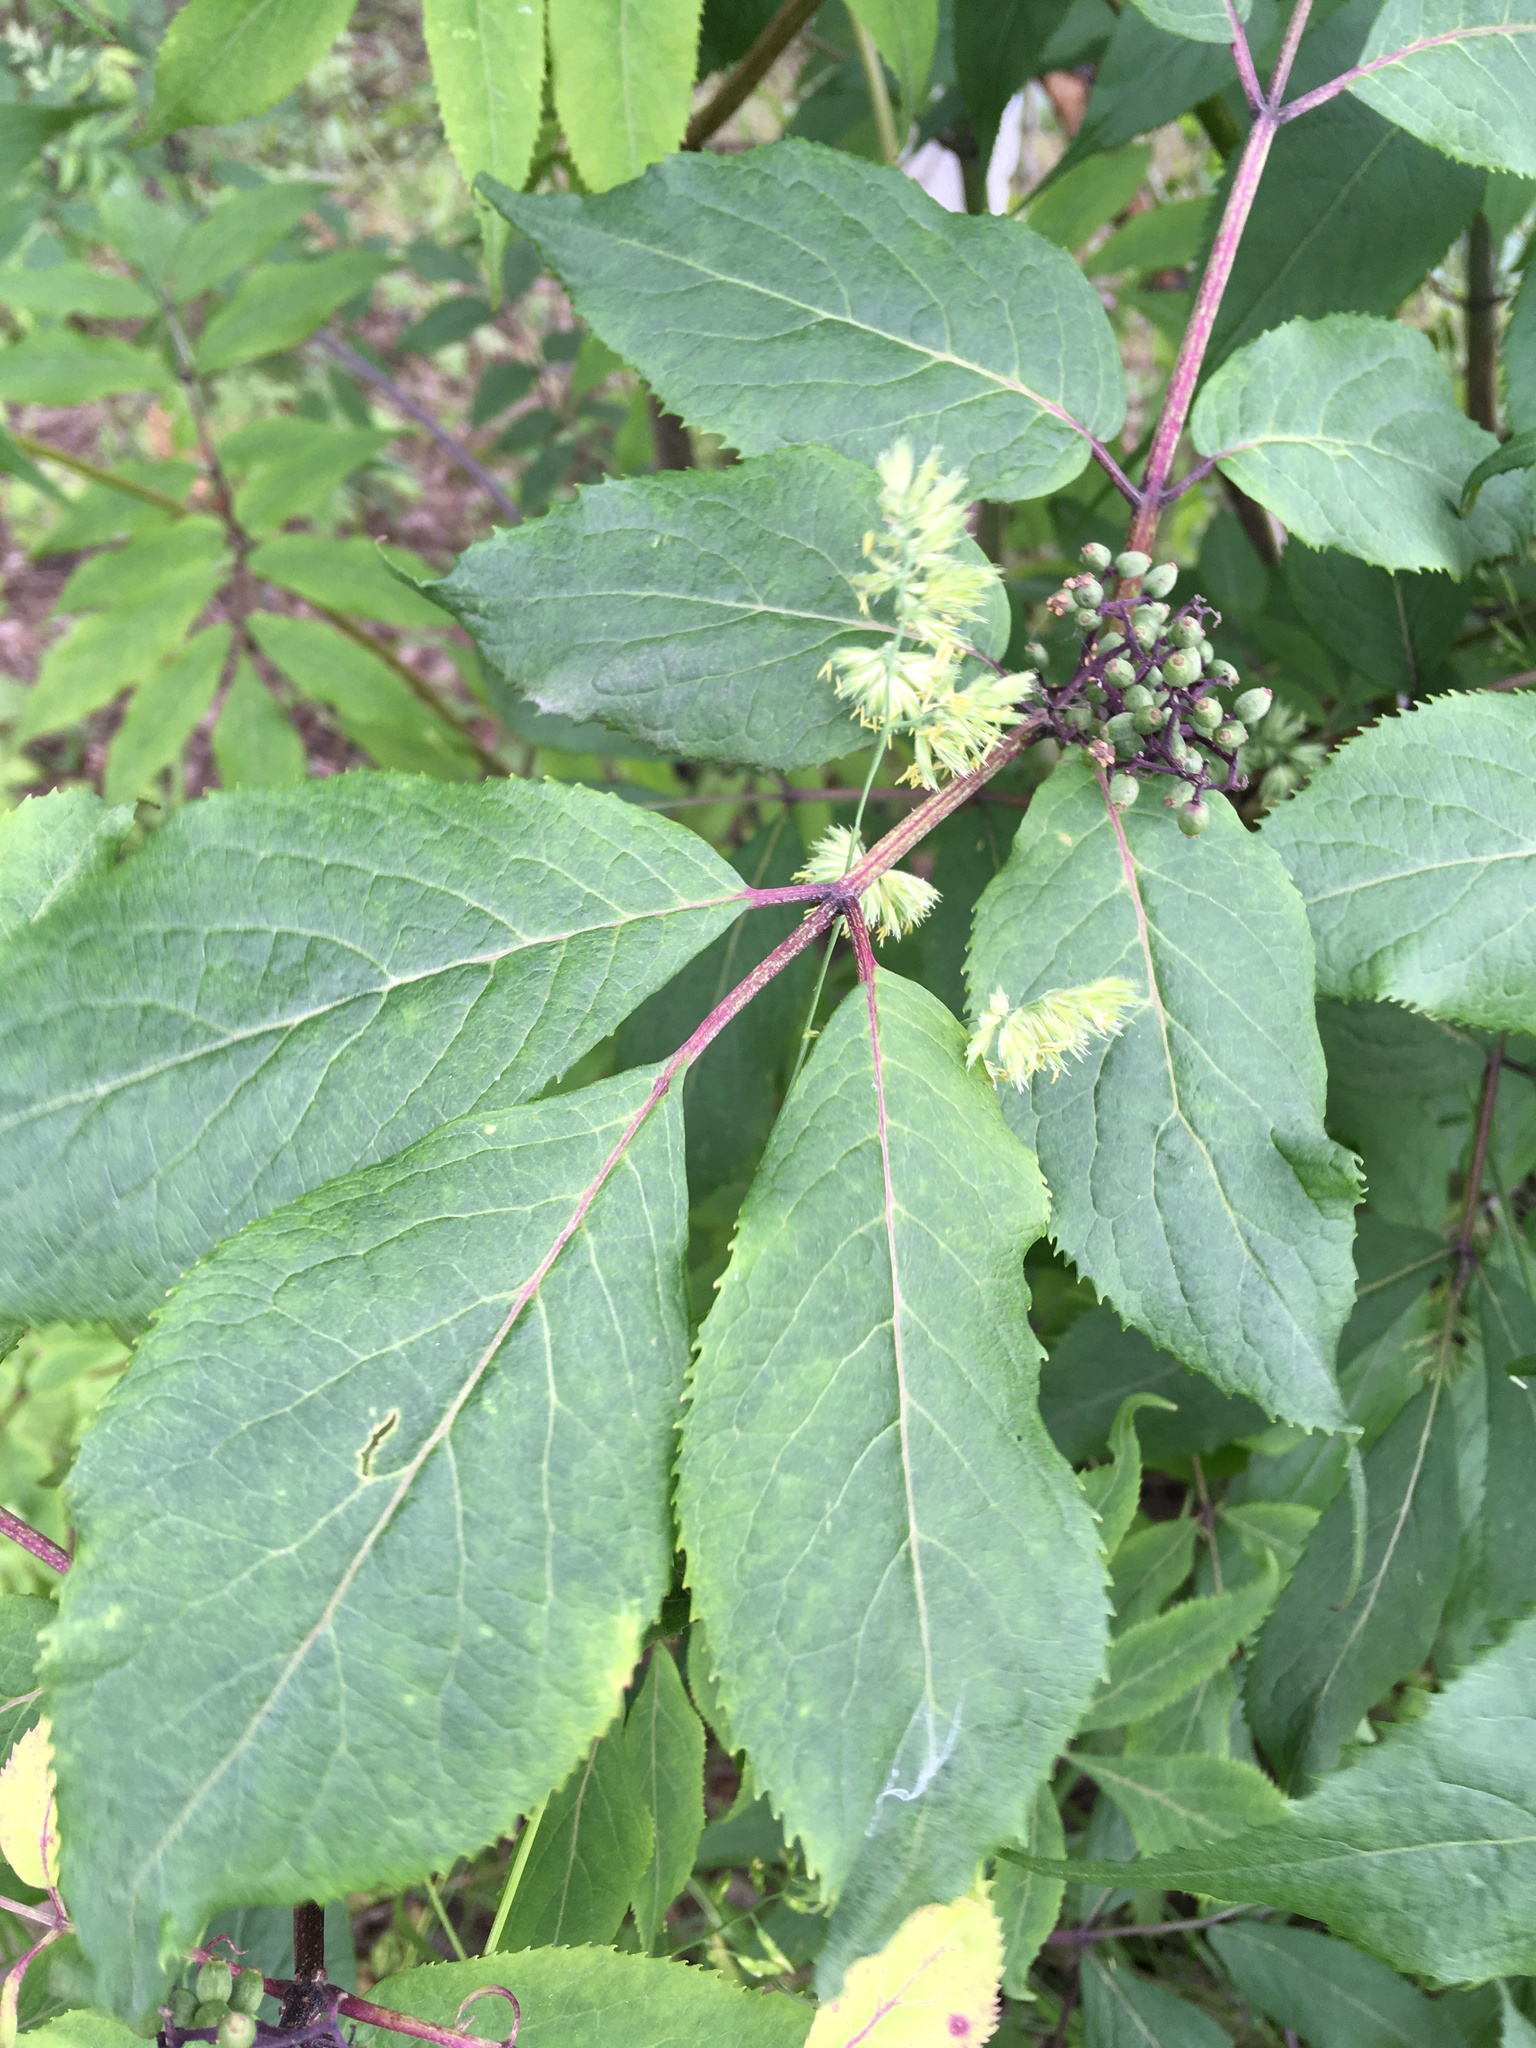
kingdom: Plantae
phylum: Tracheophyta
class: Magnoliopsida
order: Dipsacales
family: Viburnaceae
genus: Sambucus
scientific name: Sambucus racemosa
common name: Red-berried elder
